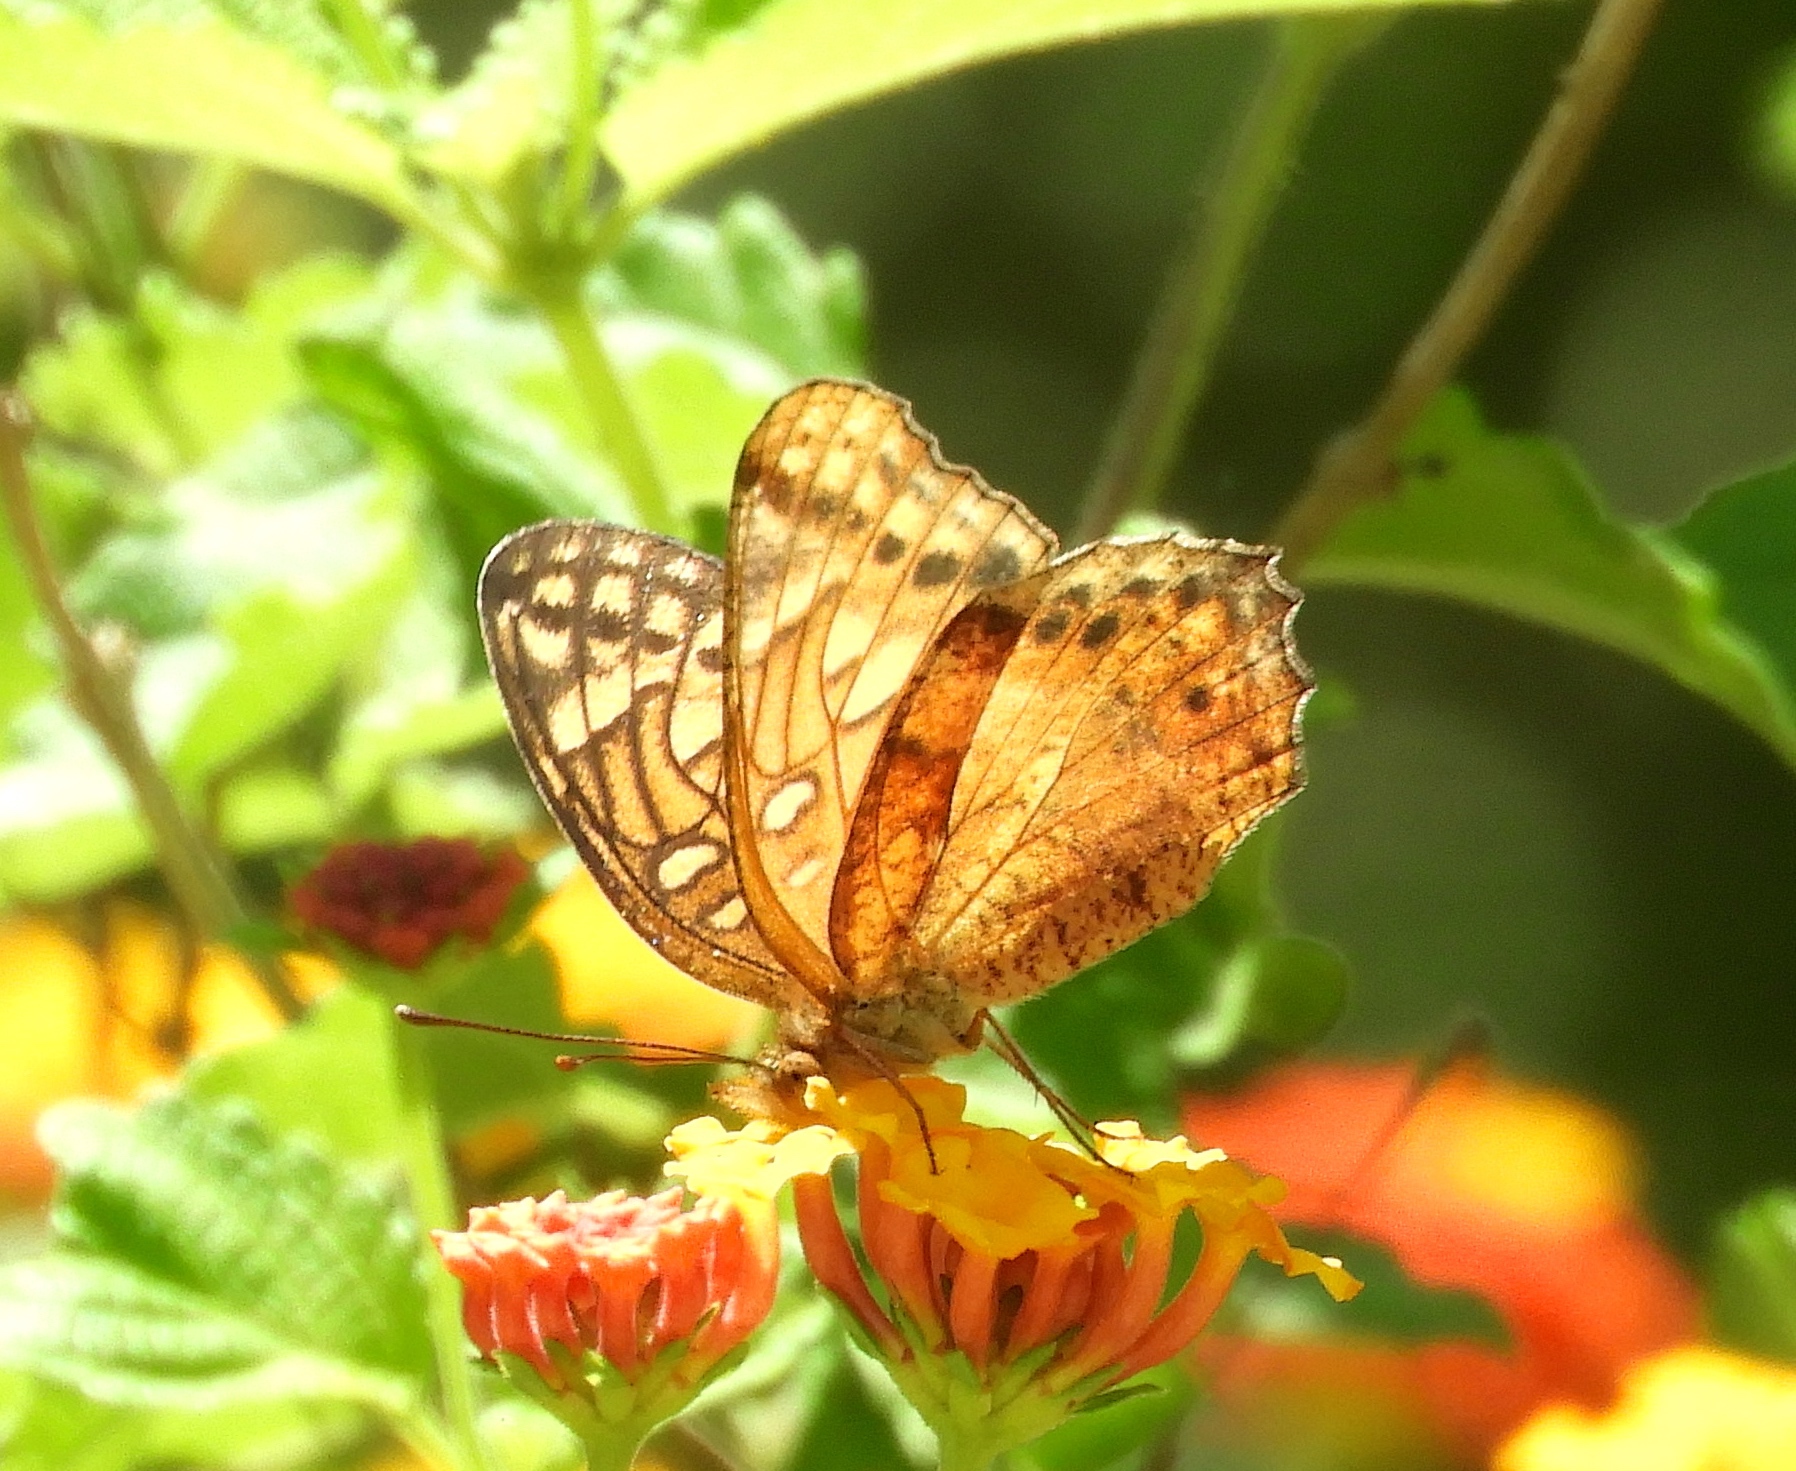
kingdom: Animalia
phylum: Arthropoda
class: Insecta
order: Lepidoptera
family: Nymphalidae
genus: Euptoieta
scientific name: Euptoieta hegesia
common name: Mexican fritillary
